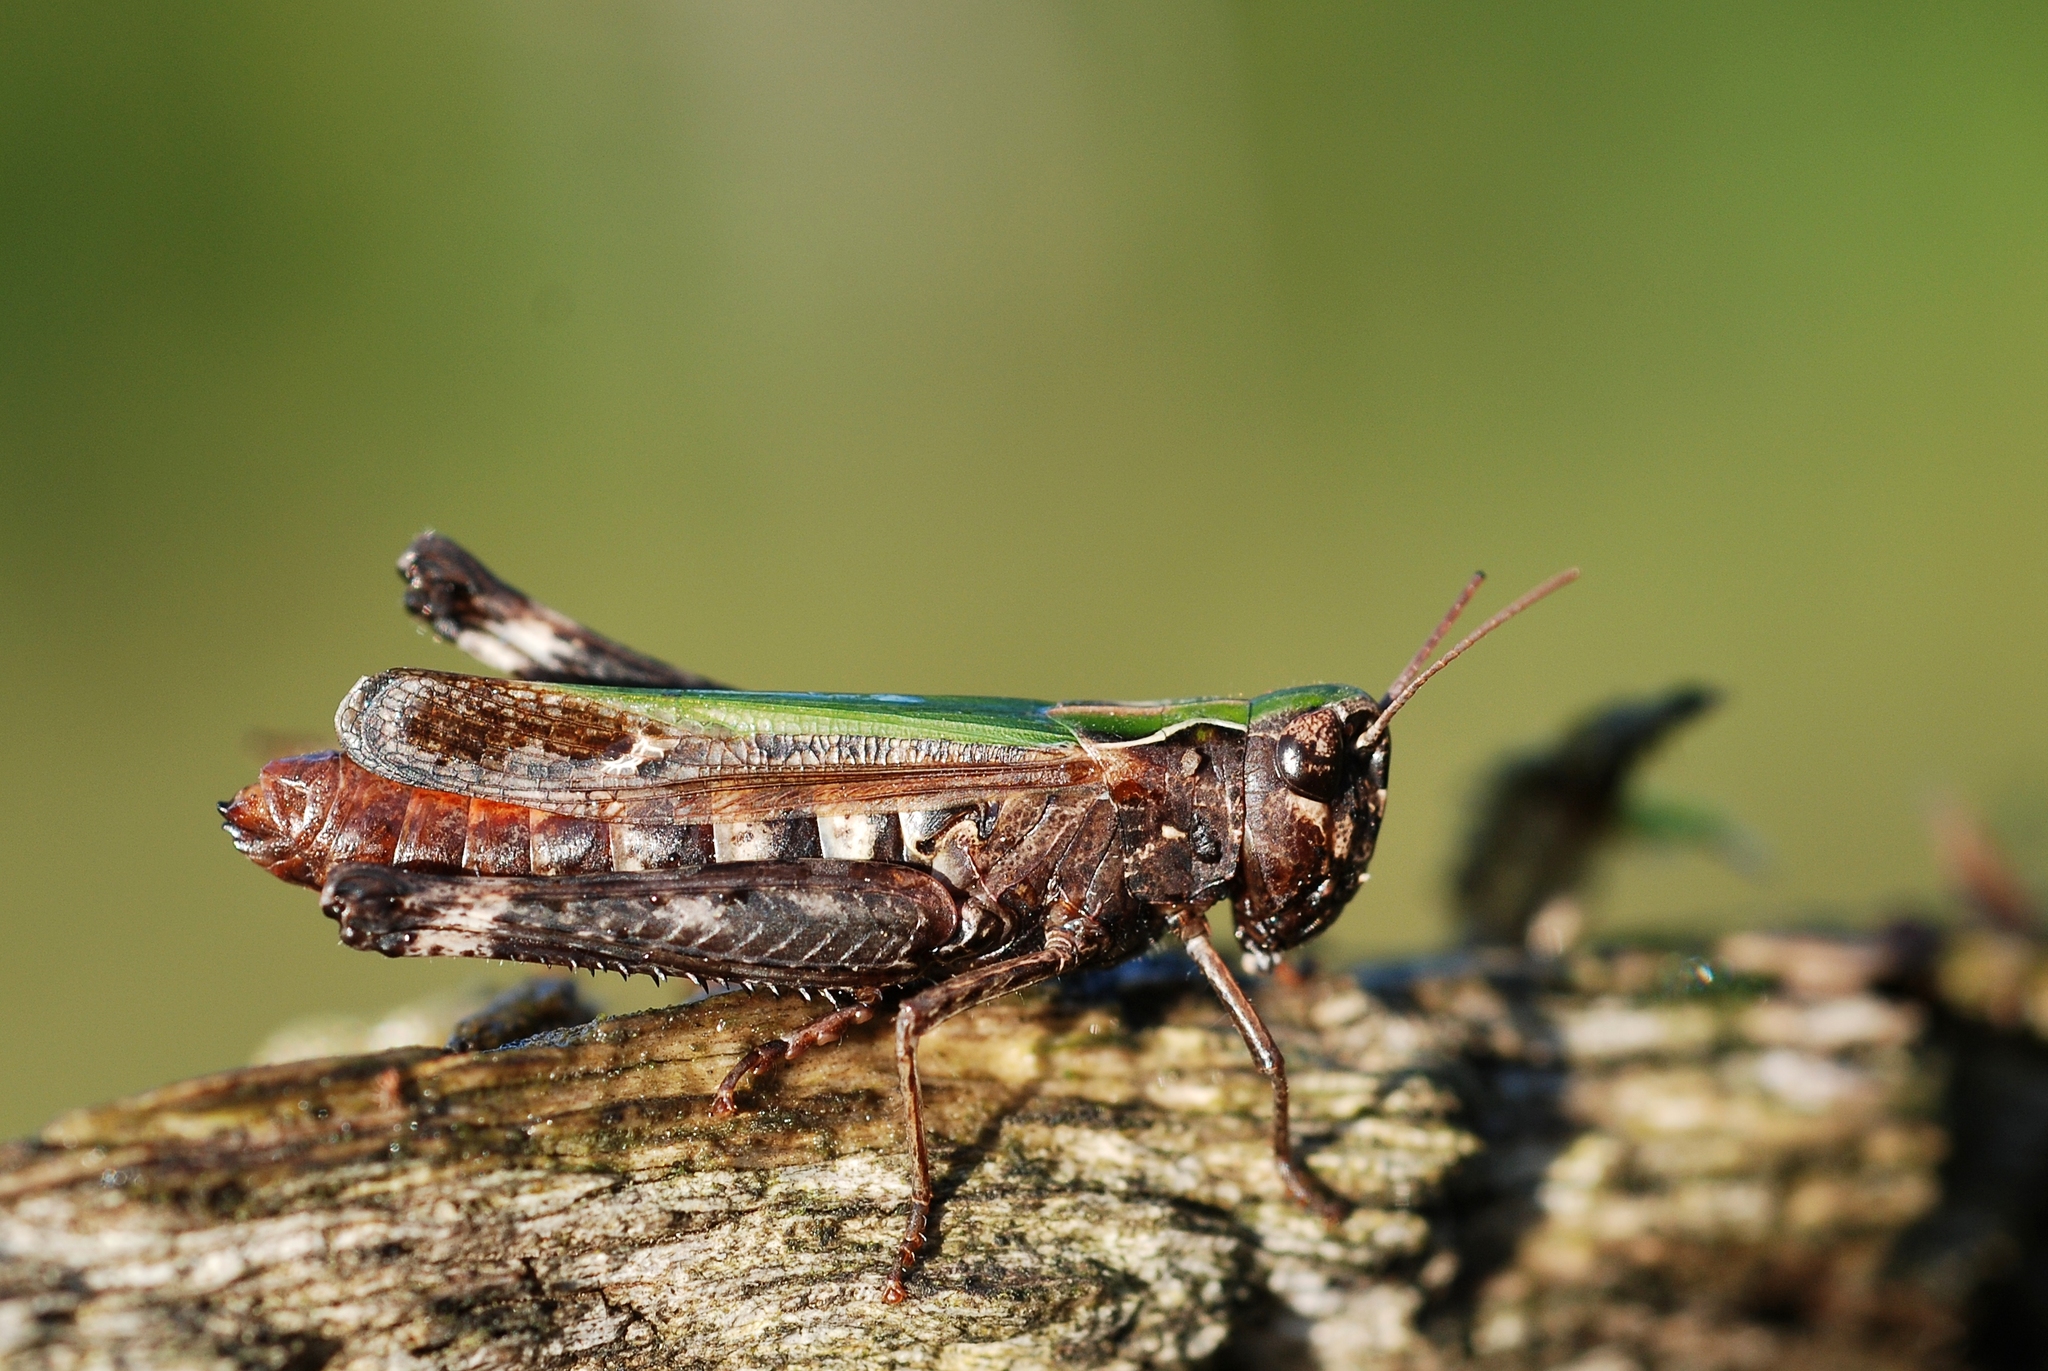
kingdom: Animalia
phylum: Arthropoda
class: Insecta
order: Orthoptera
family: Acrididae
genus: Omocestus
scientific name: Omocestus rufipes
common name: Woodland grasshopper
